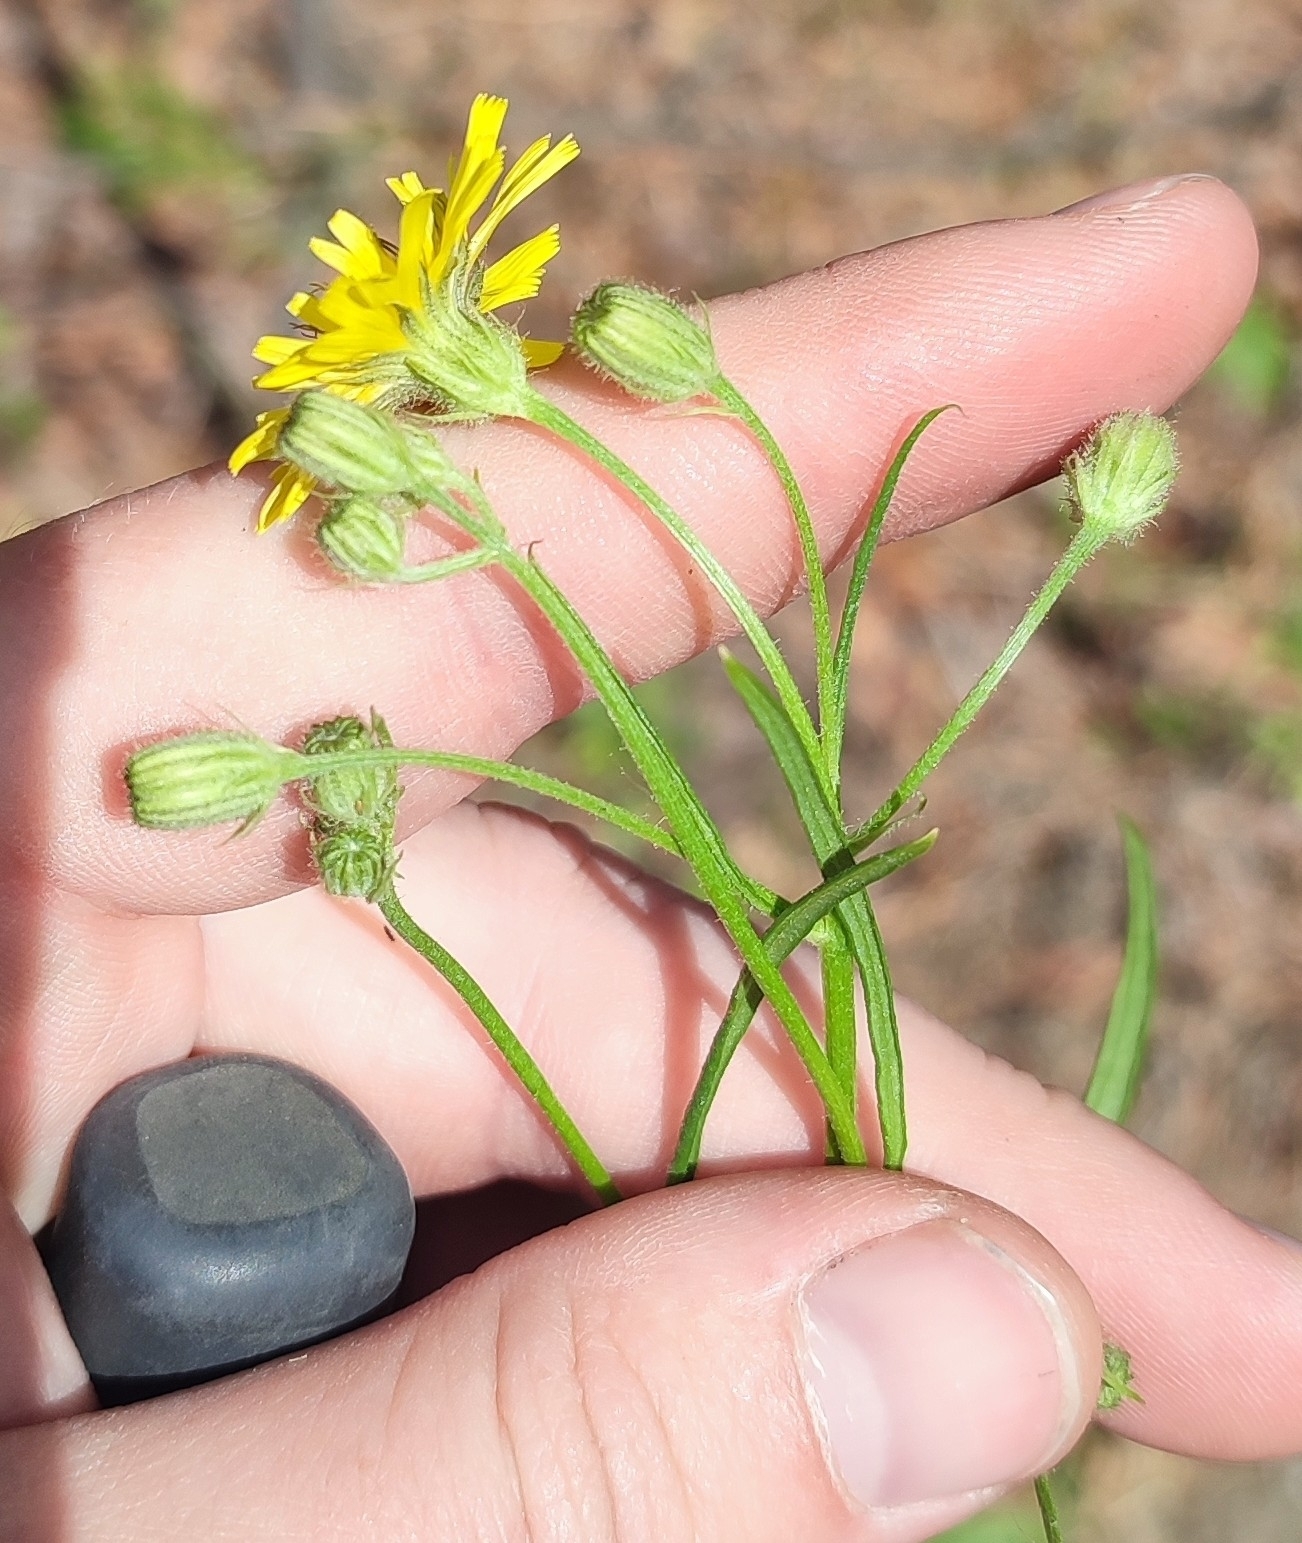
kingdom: Plantae
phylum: Tracheophyta
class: Magnoliopsida
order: Asterales
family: Asteraceae
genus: Crepis
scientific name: Crepis tectorum
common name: Narrow-leaved hawk's-beard
